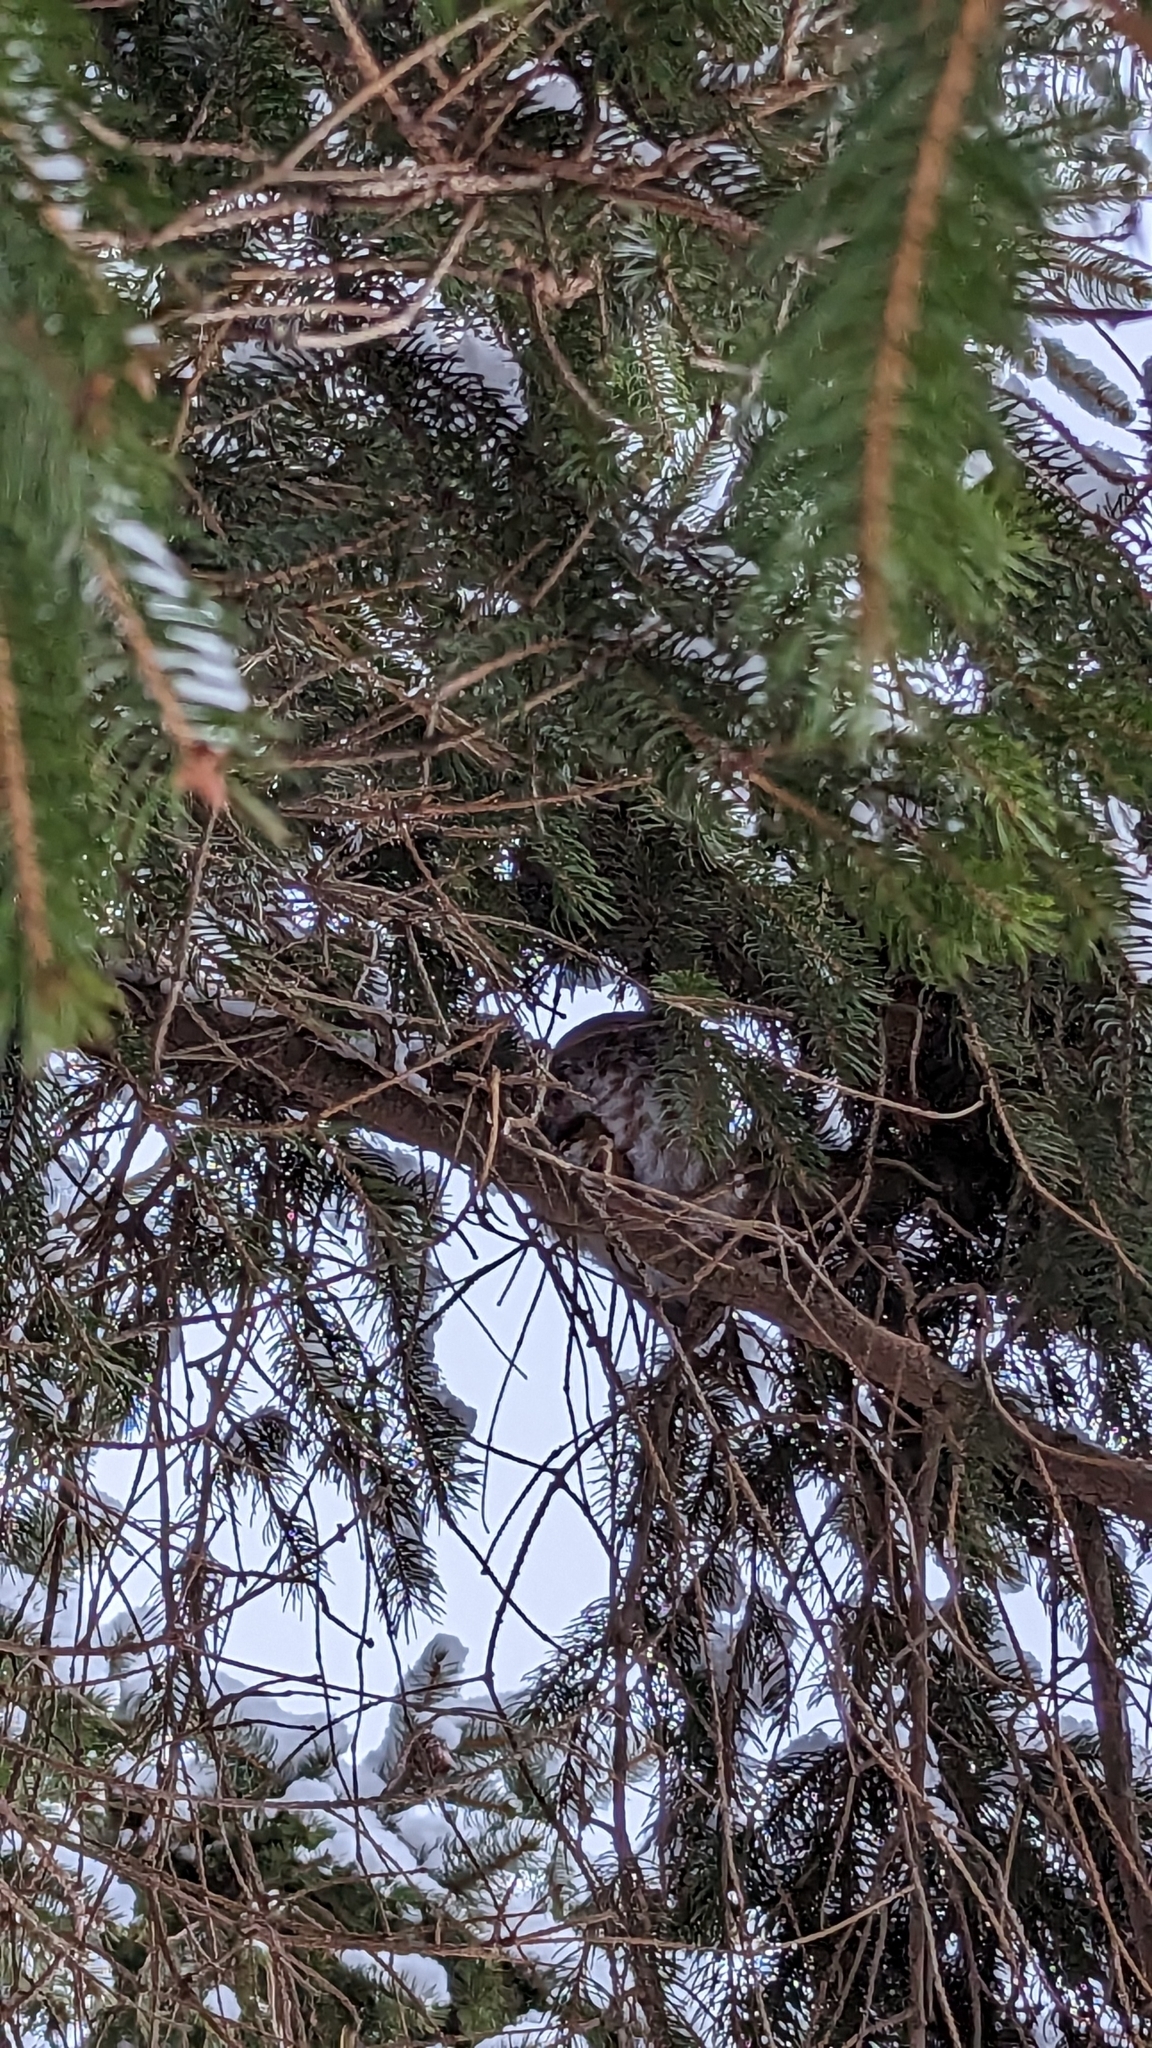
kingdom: Animalia
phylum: Chordata
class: Aves
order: Strigiformes
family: Strigidae
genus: Aegolius
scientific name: Aegolius acadicus
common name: Northern saw-whet owl
